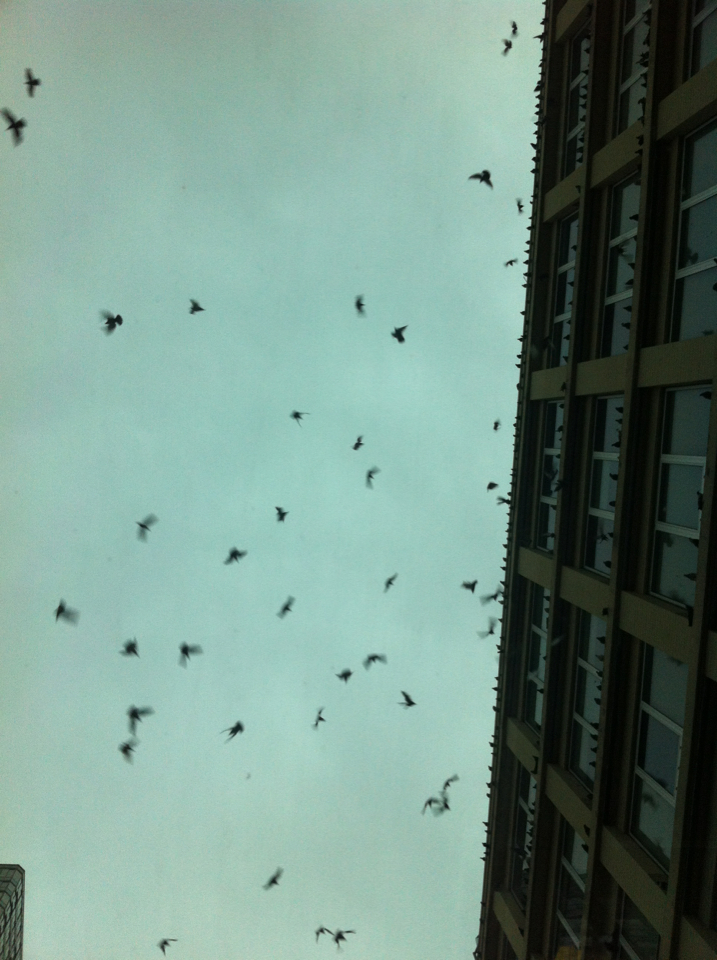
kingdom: Animalia
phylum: Chordata
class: Aves
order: Columbiformes
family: Columbidae
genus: Columba
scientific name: Columba livia
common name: Rock pigeon
